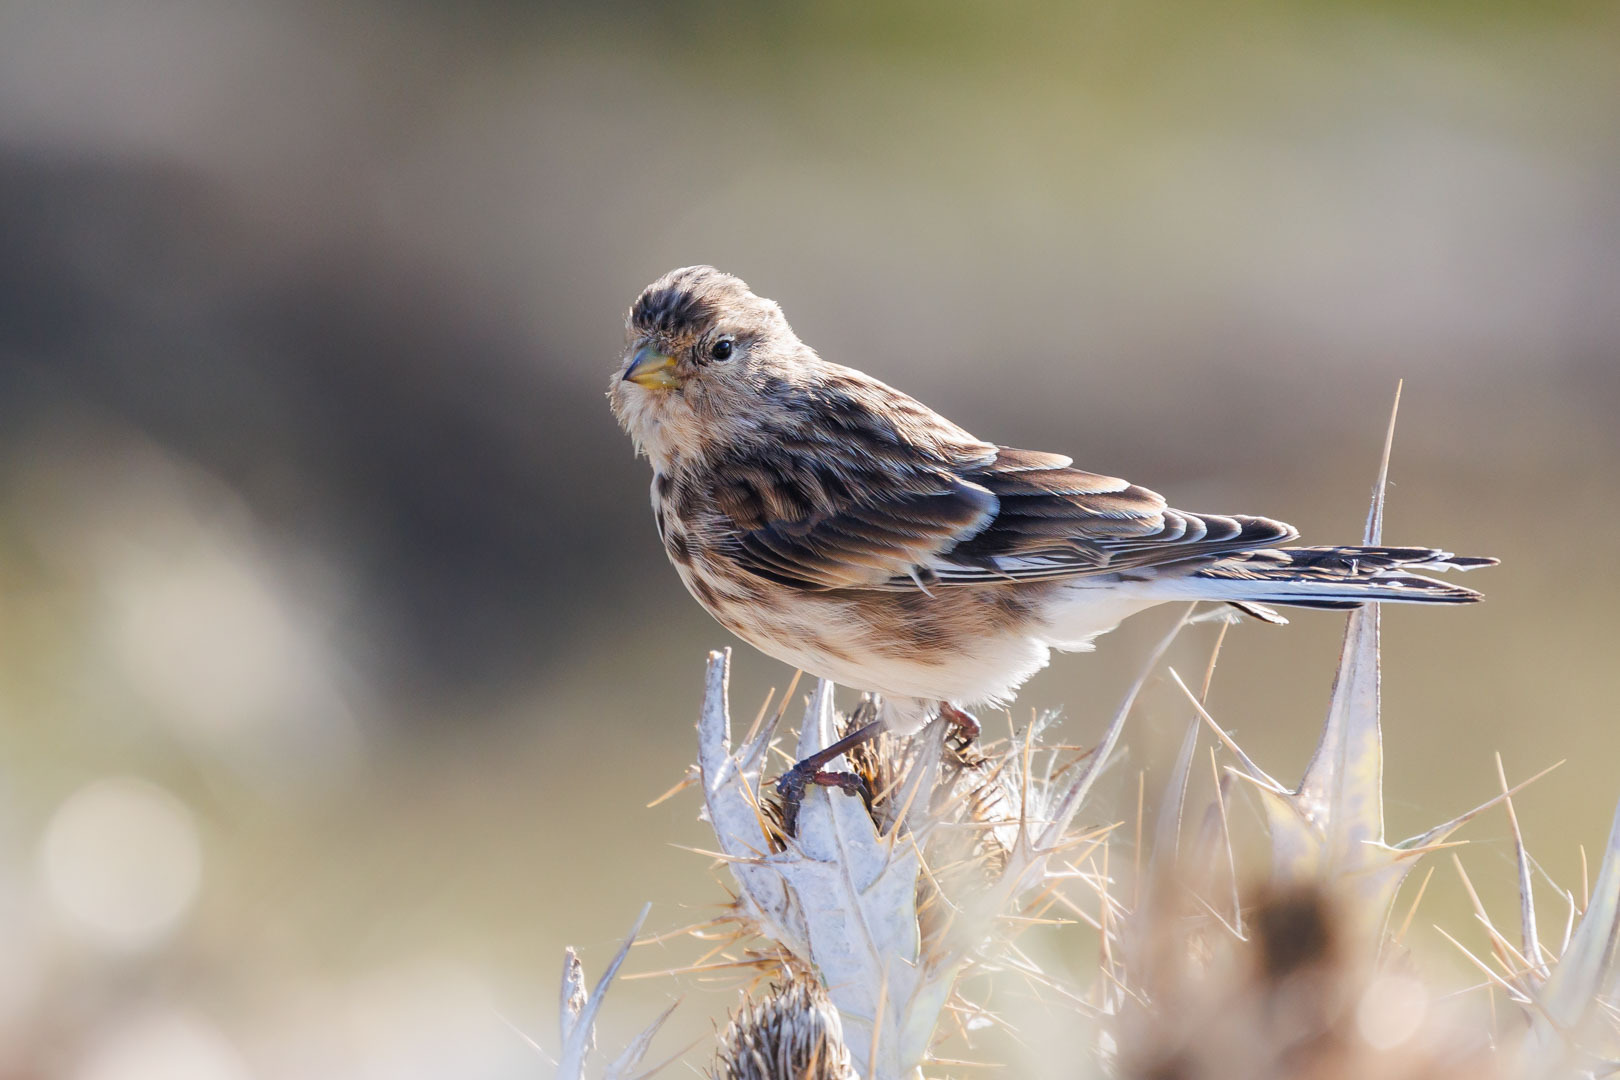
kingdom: Animalia
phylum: Chordata
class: Aves
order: Passeriformes
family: Fringillidae
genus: Linaria
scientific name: Linaria flavirostris
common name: Twite
